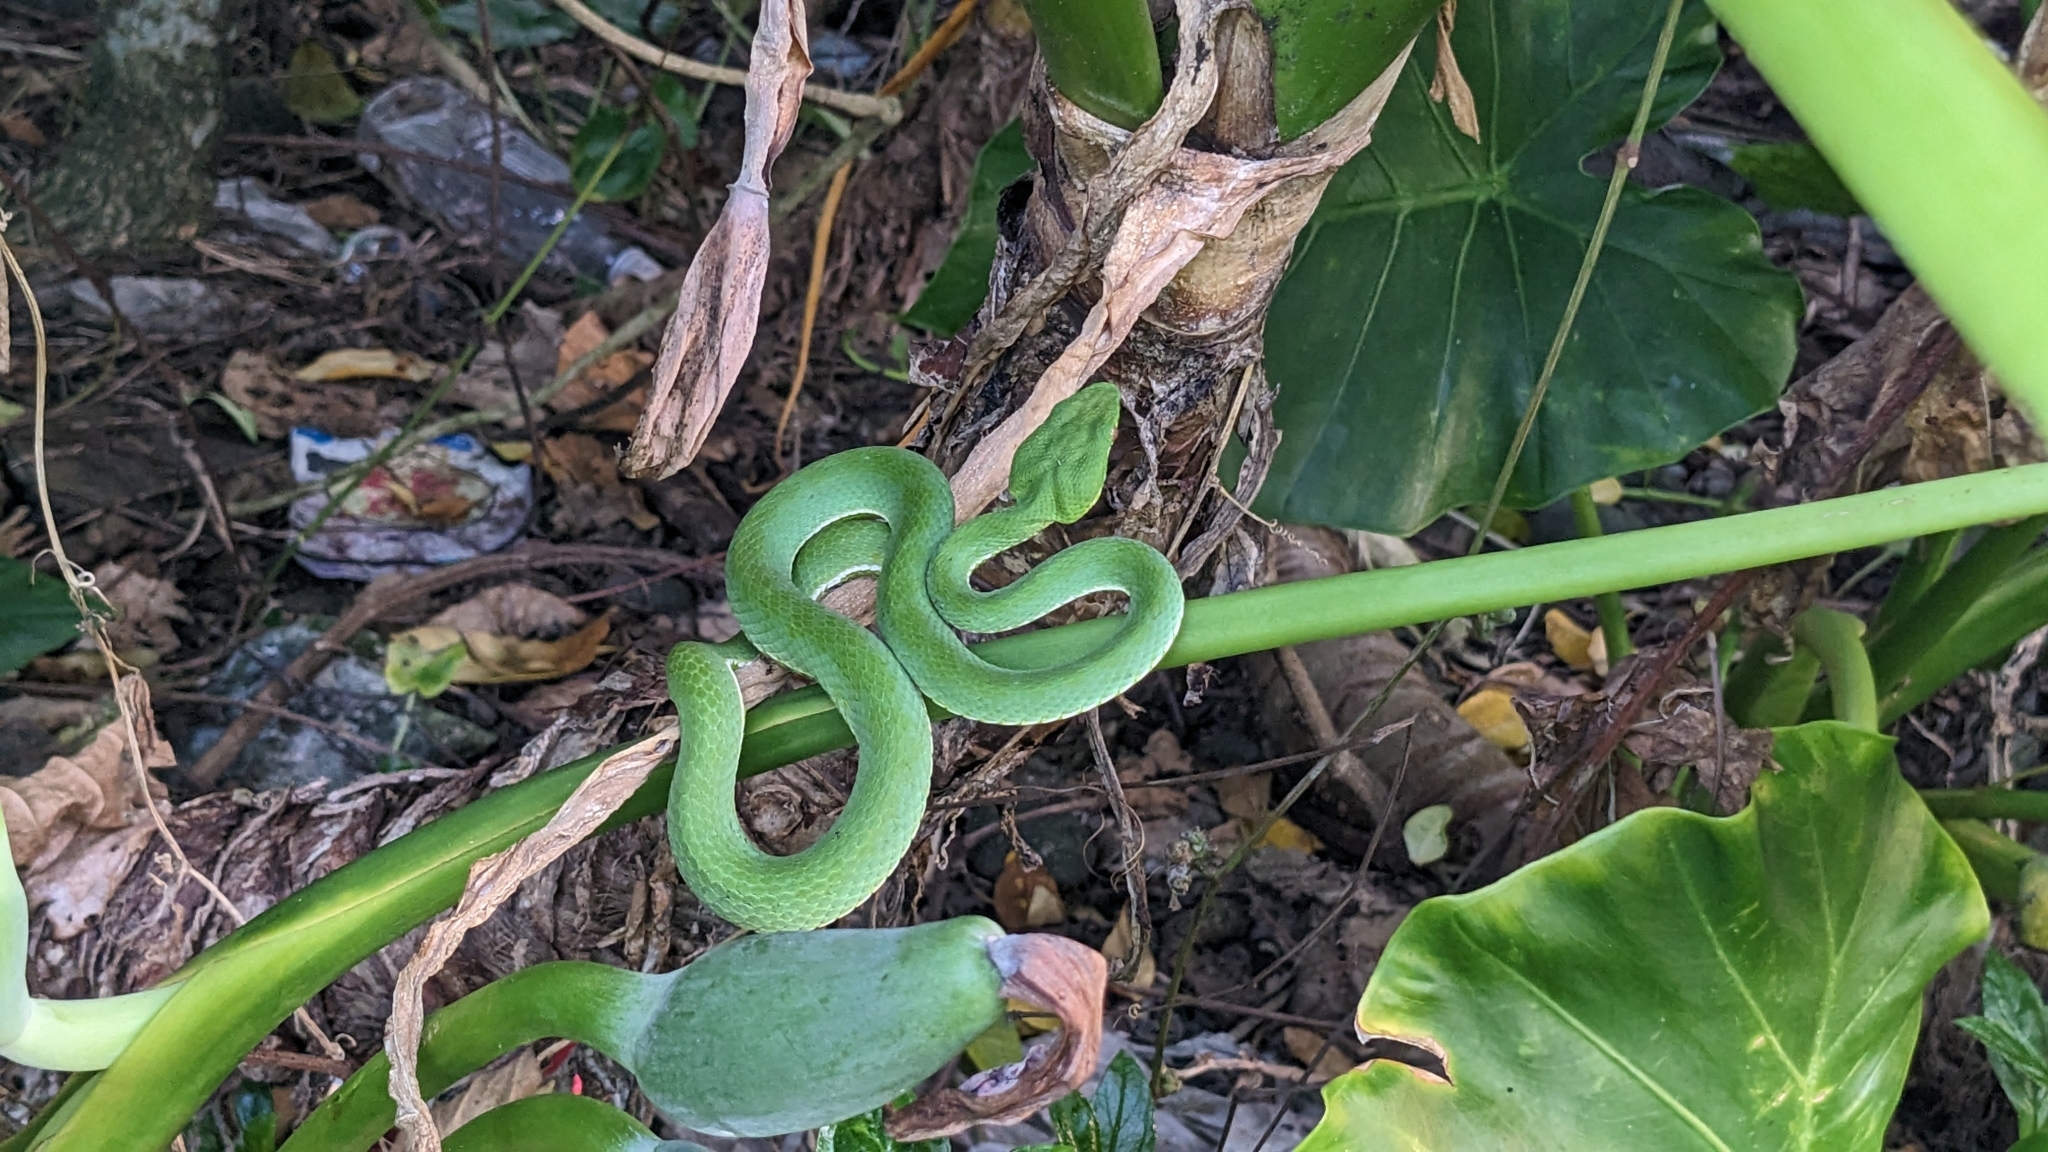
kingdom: Animalia
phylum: Chordata
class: Squamata
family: Viperidae
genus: Trimeresurus
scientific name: Trimeresurus stejnegeri
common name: Chen’s bamboo pit viper
